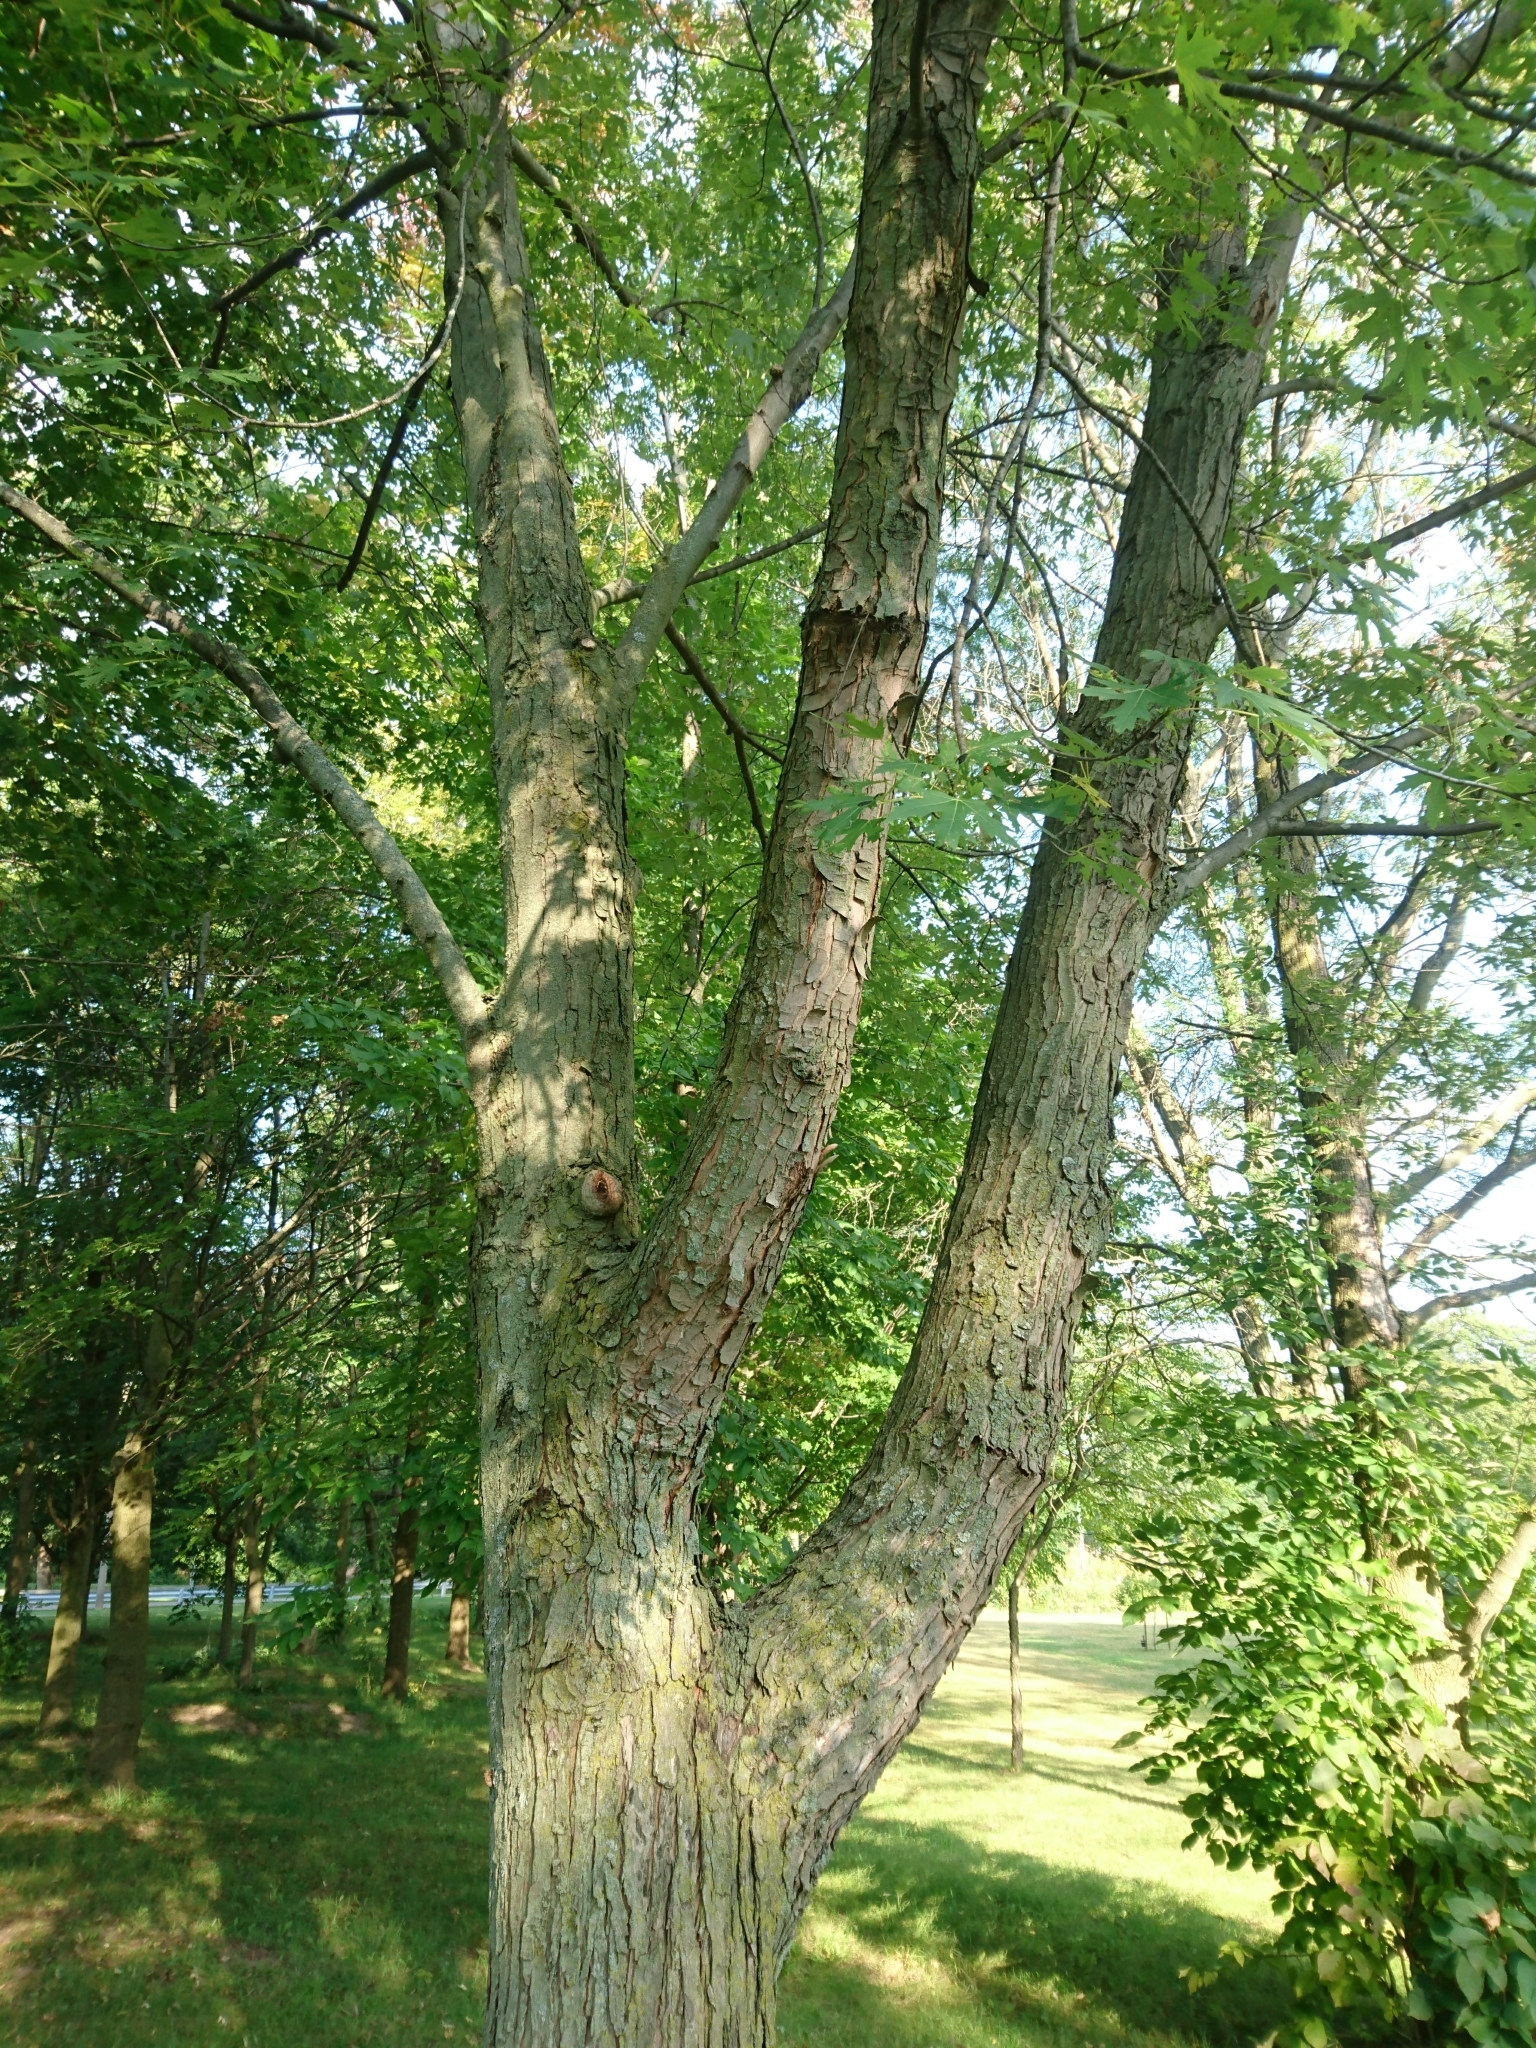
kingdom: Plantae
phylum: Tracheophyta
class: Magnoliopsida
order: Sapindales
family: Sapindaceae
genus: Acer
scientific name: Acer saccharinum
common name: Silver maple
